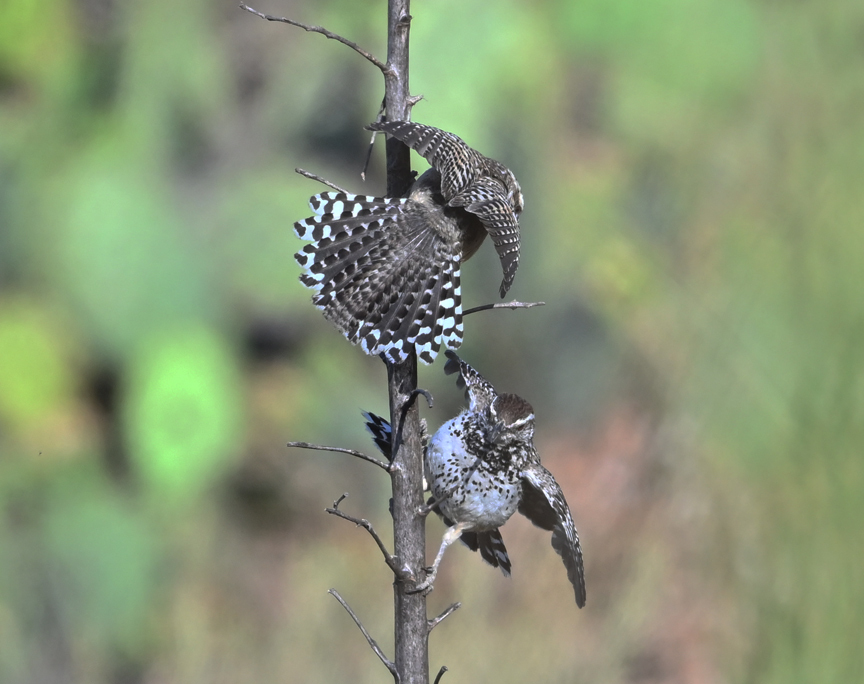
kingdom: Animalia
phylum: Chordata
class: Aves
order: Passeriformes
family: Troglodytidae
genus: Campylorhynchus
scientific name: Campylorhynchus brunneicapillus
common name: Cactus wren
